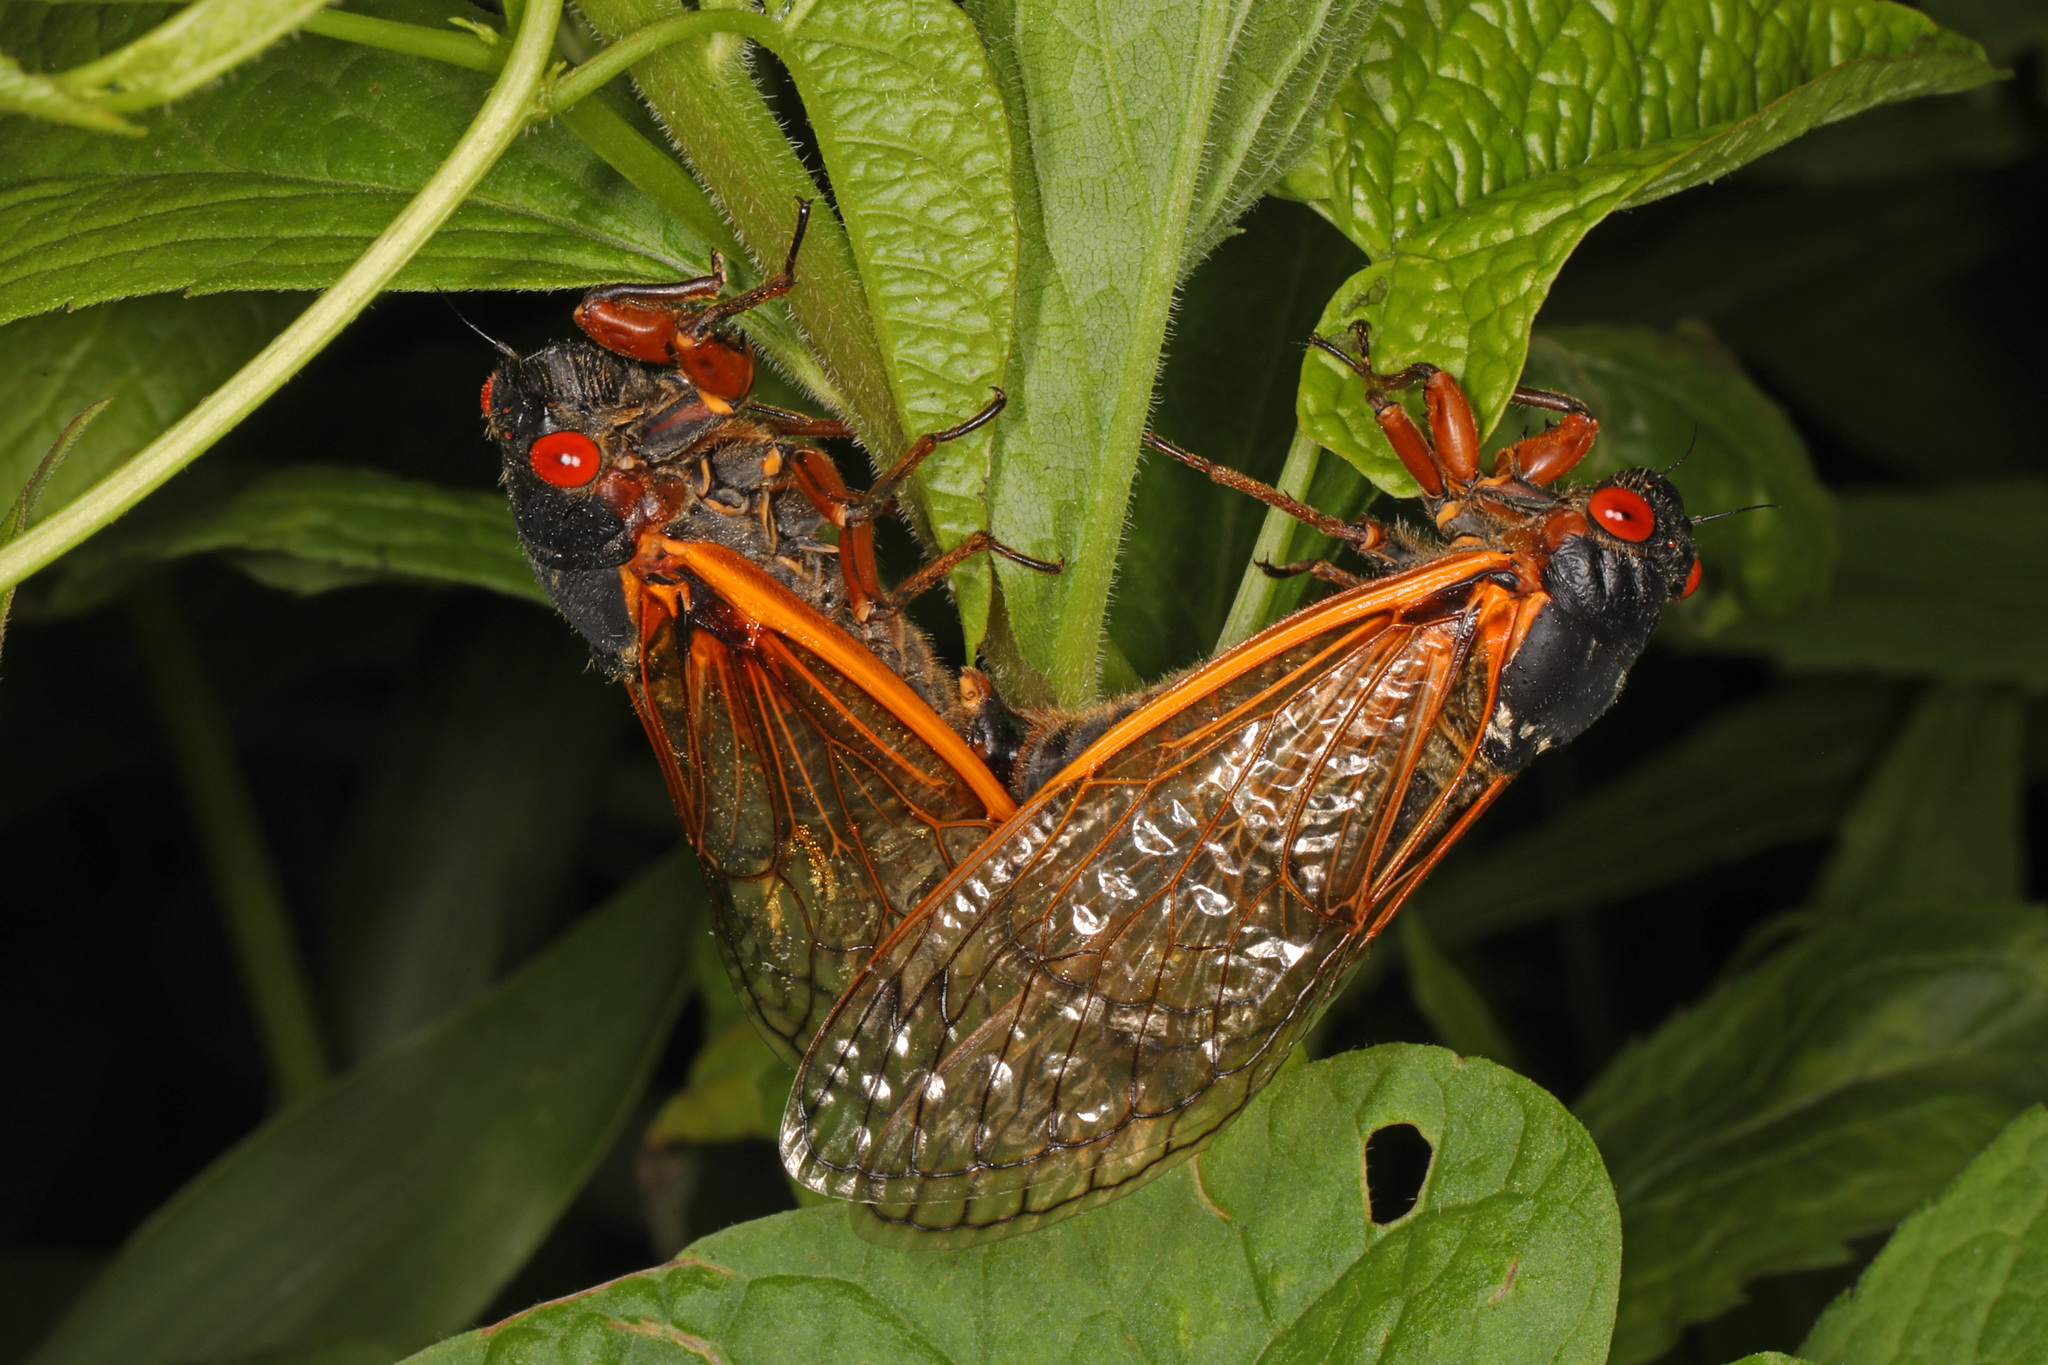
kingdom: Animalia
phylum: Arthropoda
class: Insecta
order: Hemiptera
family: Cicadidae
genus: Magicicada
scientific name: Magicicada septendecim
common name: Periodical cicada
